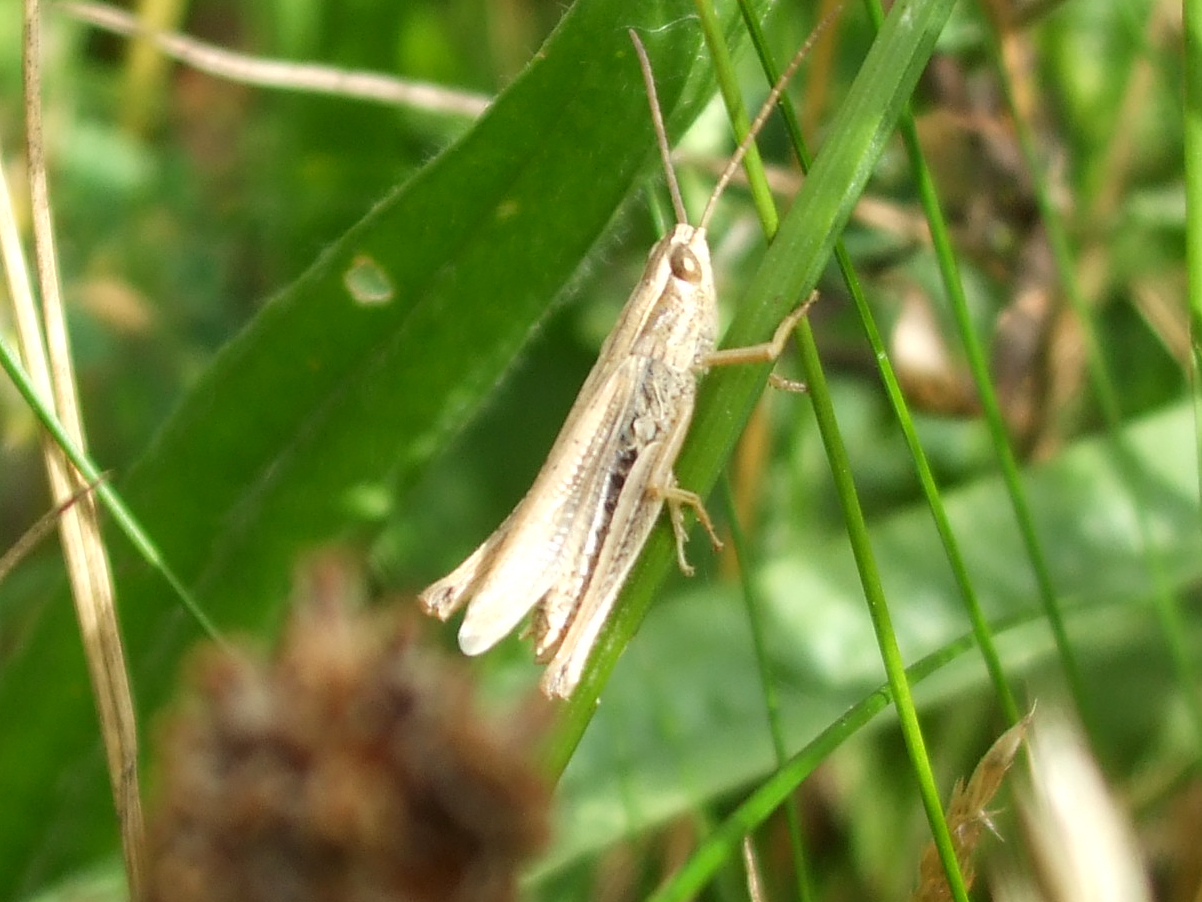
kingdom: Animalia
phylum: Arthropoda
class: Insecta
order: Orthoptera
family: Acrididae
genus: Chorthippus
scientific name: Chorthippus albomarginatus
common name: Lesser marsh grasshopper
